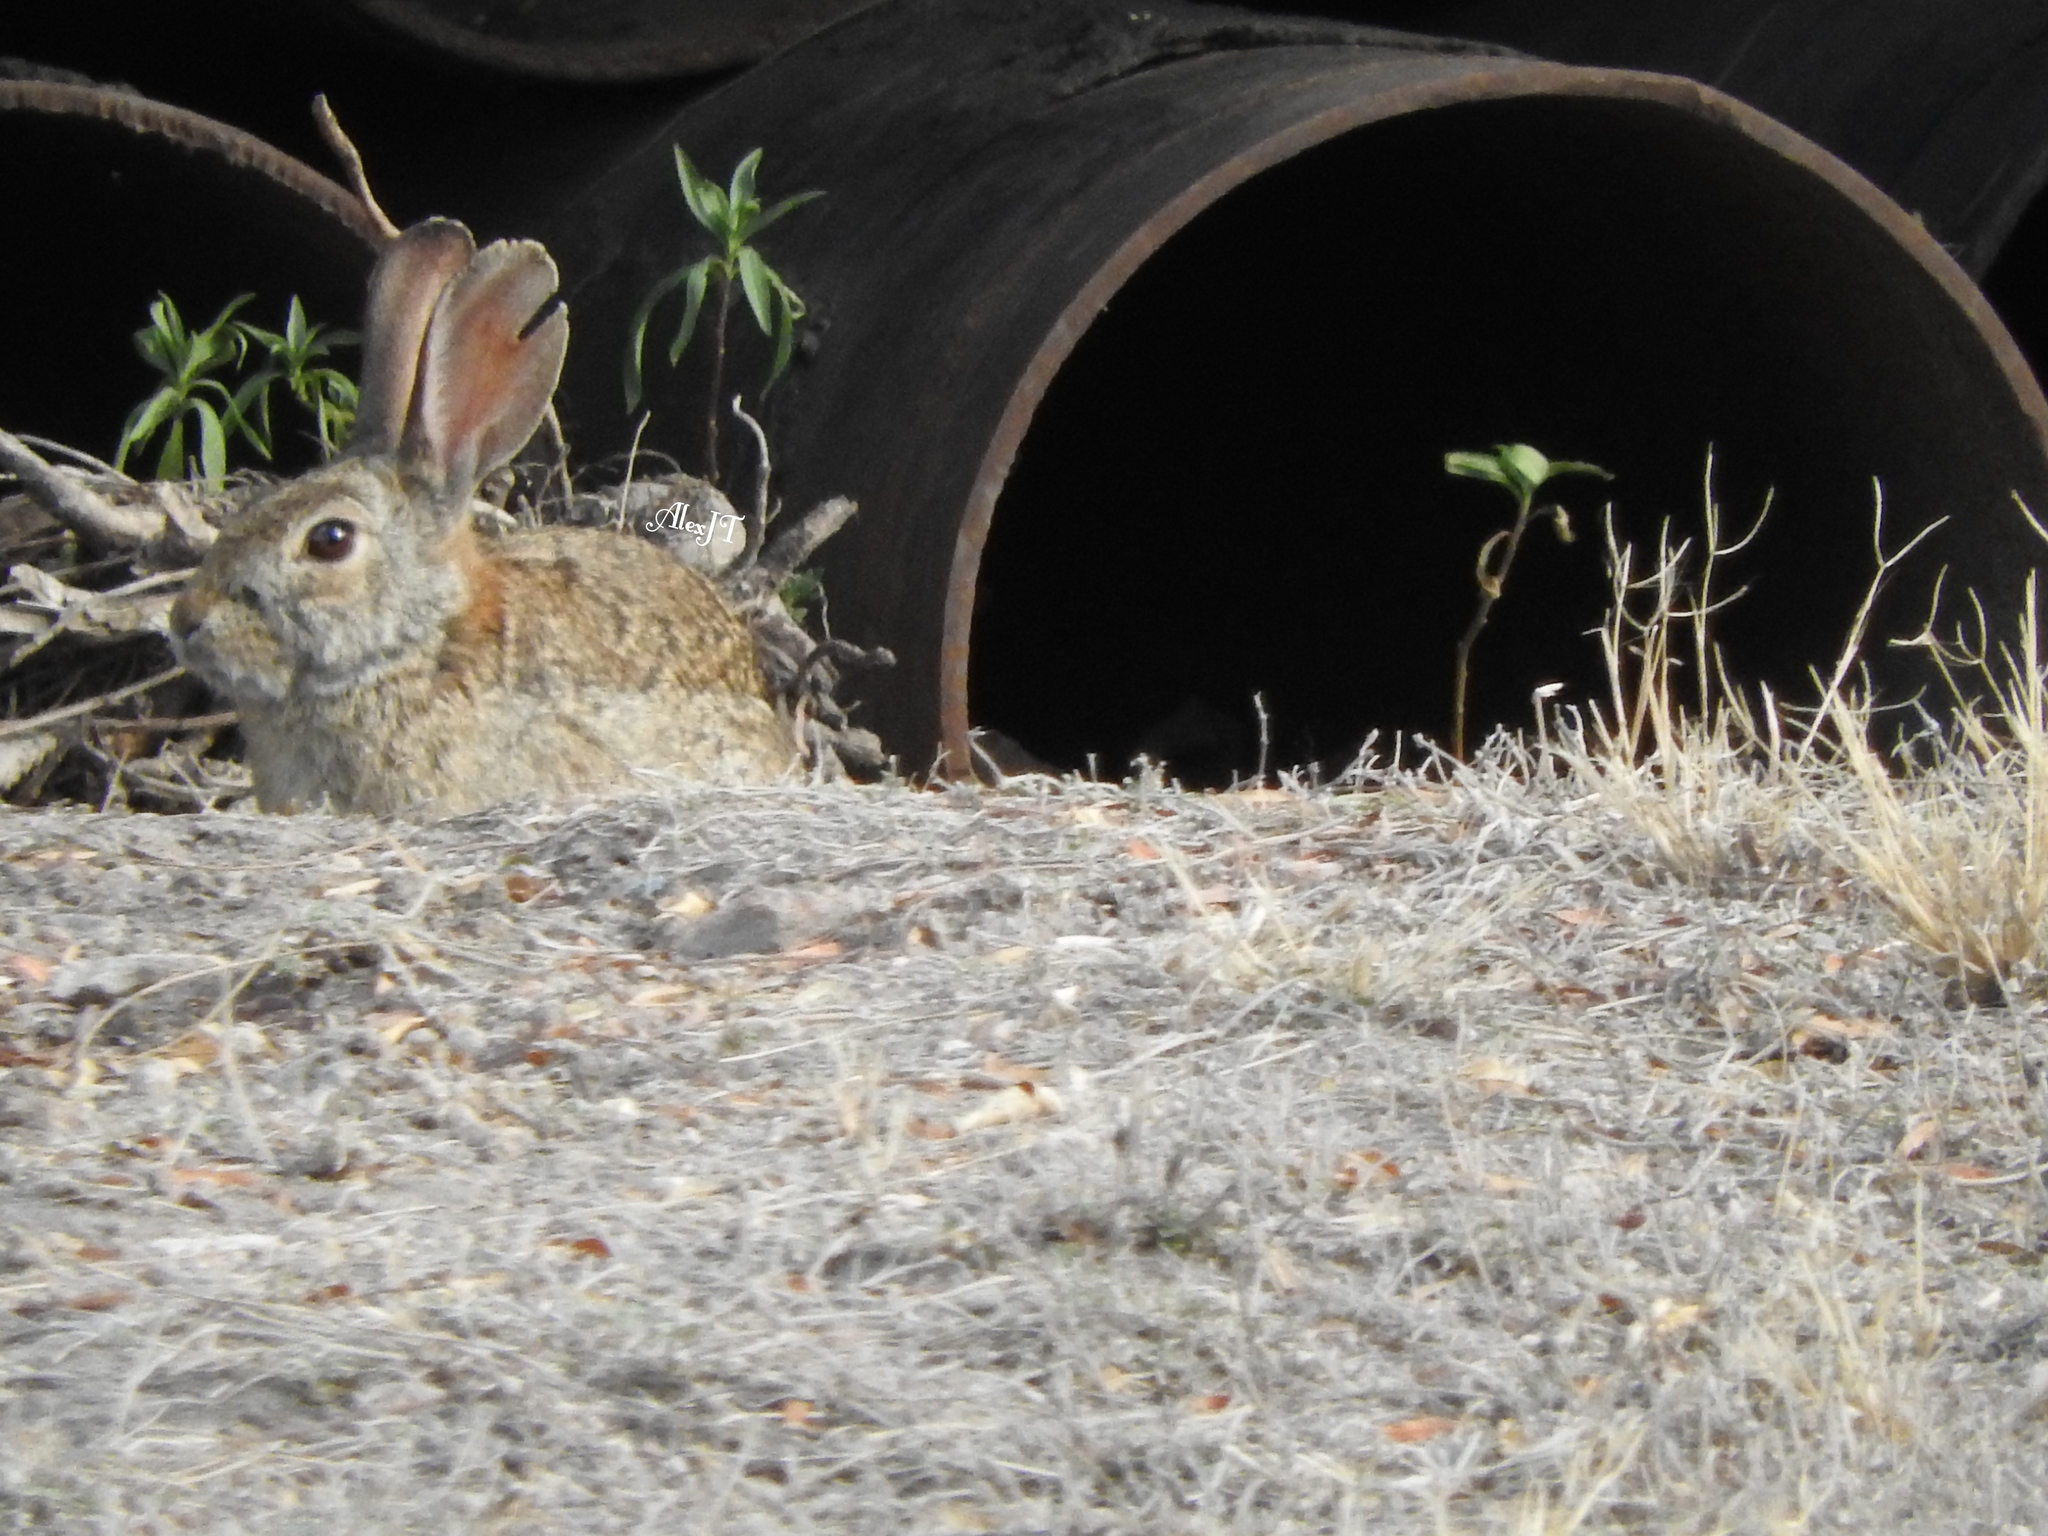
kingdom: Animalia
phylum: Chordata
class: Mammalia
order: Lagomorpha
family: Leporidae
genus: Sylvilagus
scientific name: Sylvilagus floridanus
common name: Eastern cottontail
